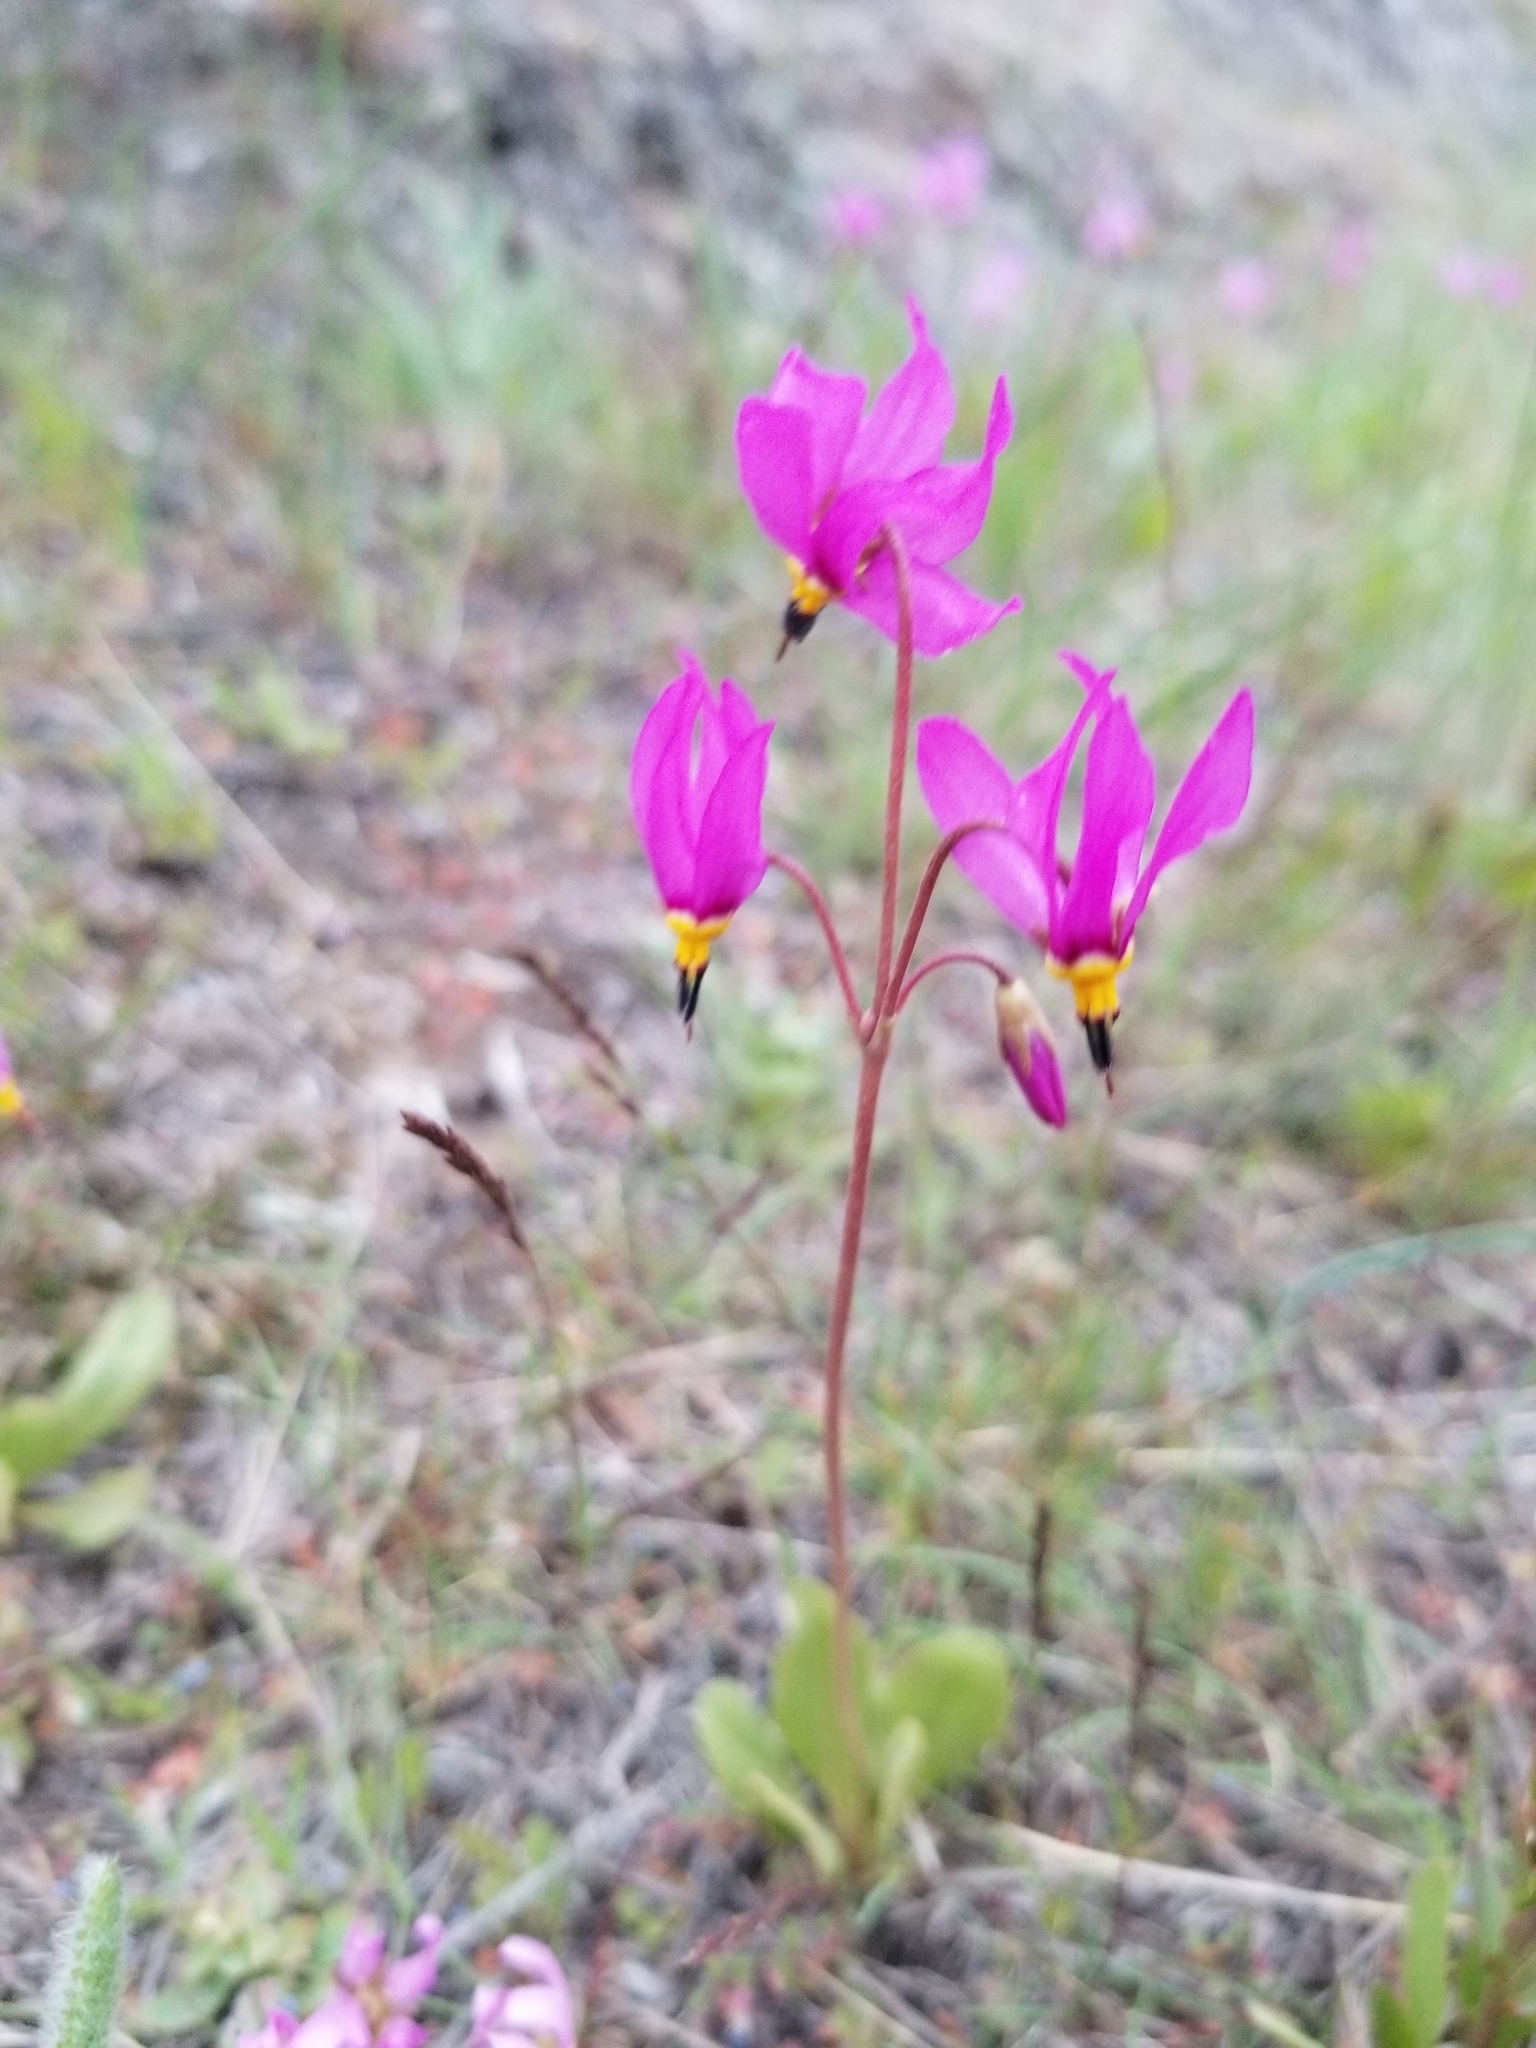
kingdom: Plantae
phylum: Tracheophyta
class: Magnoliopsida
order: Ericales
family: Primulaceae
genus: Dodecatheon
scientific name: Dodecatheon pulchellum
